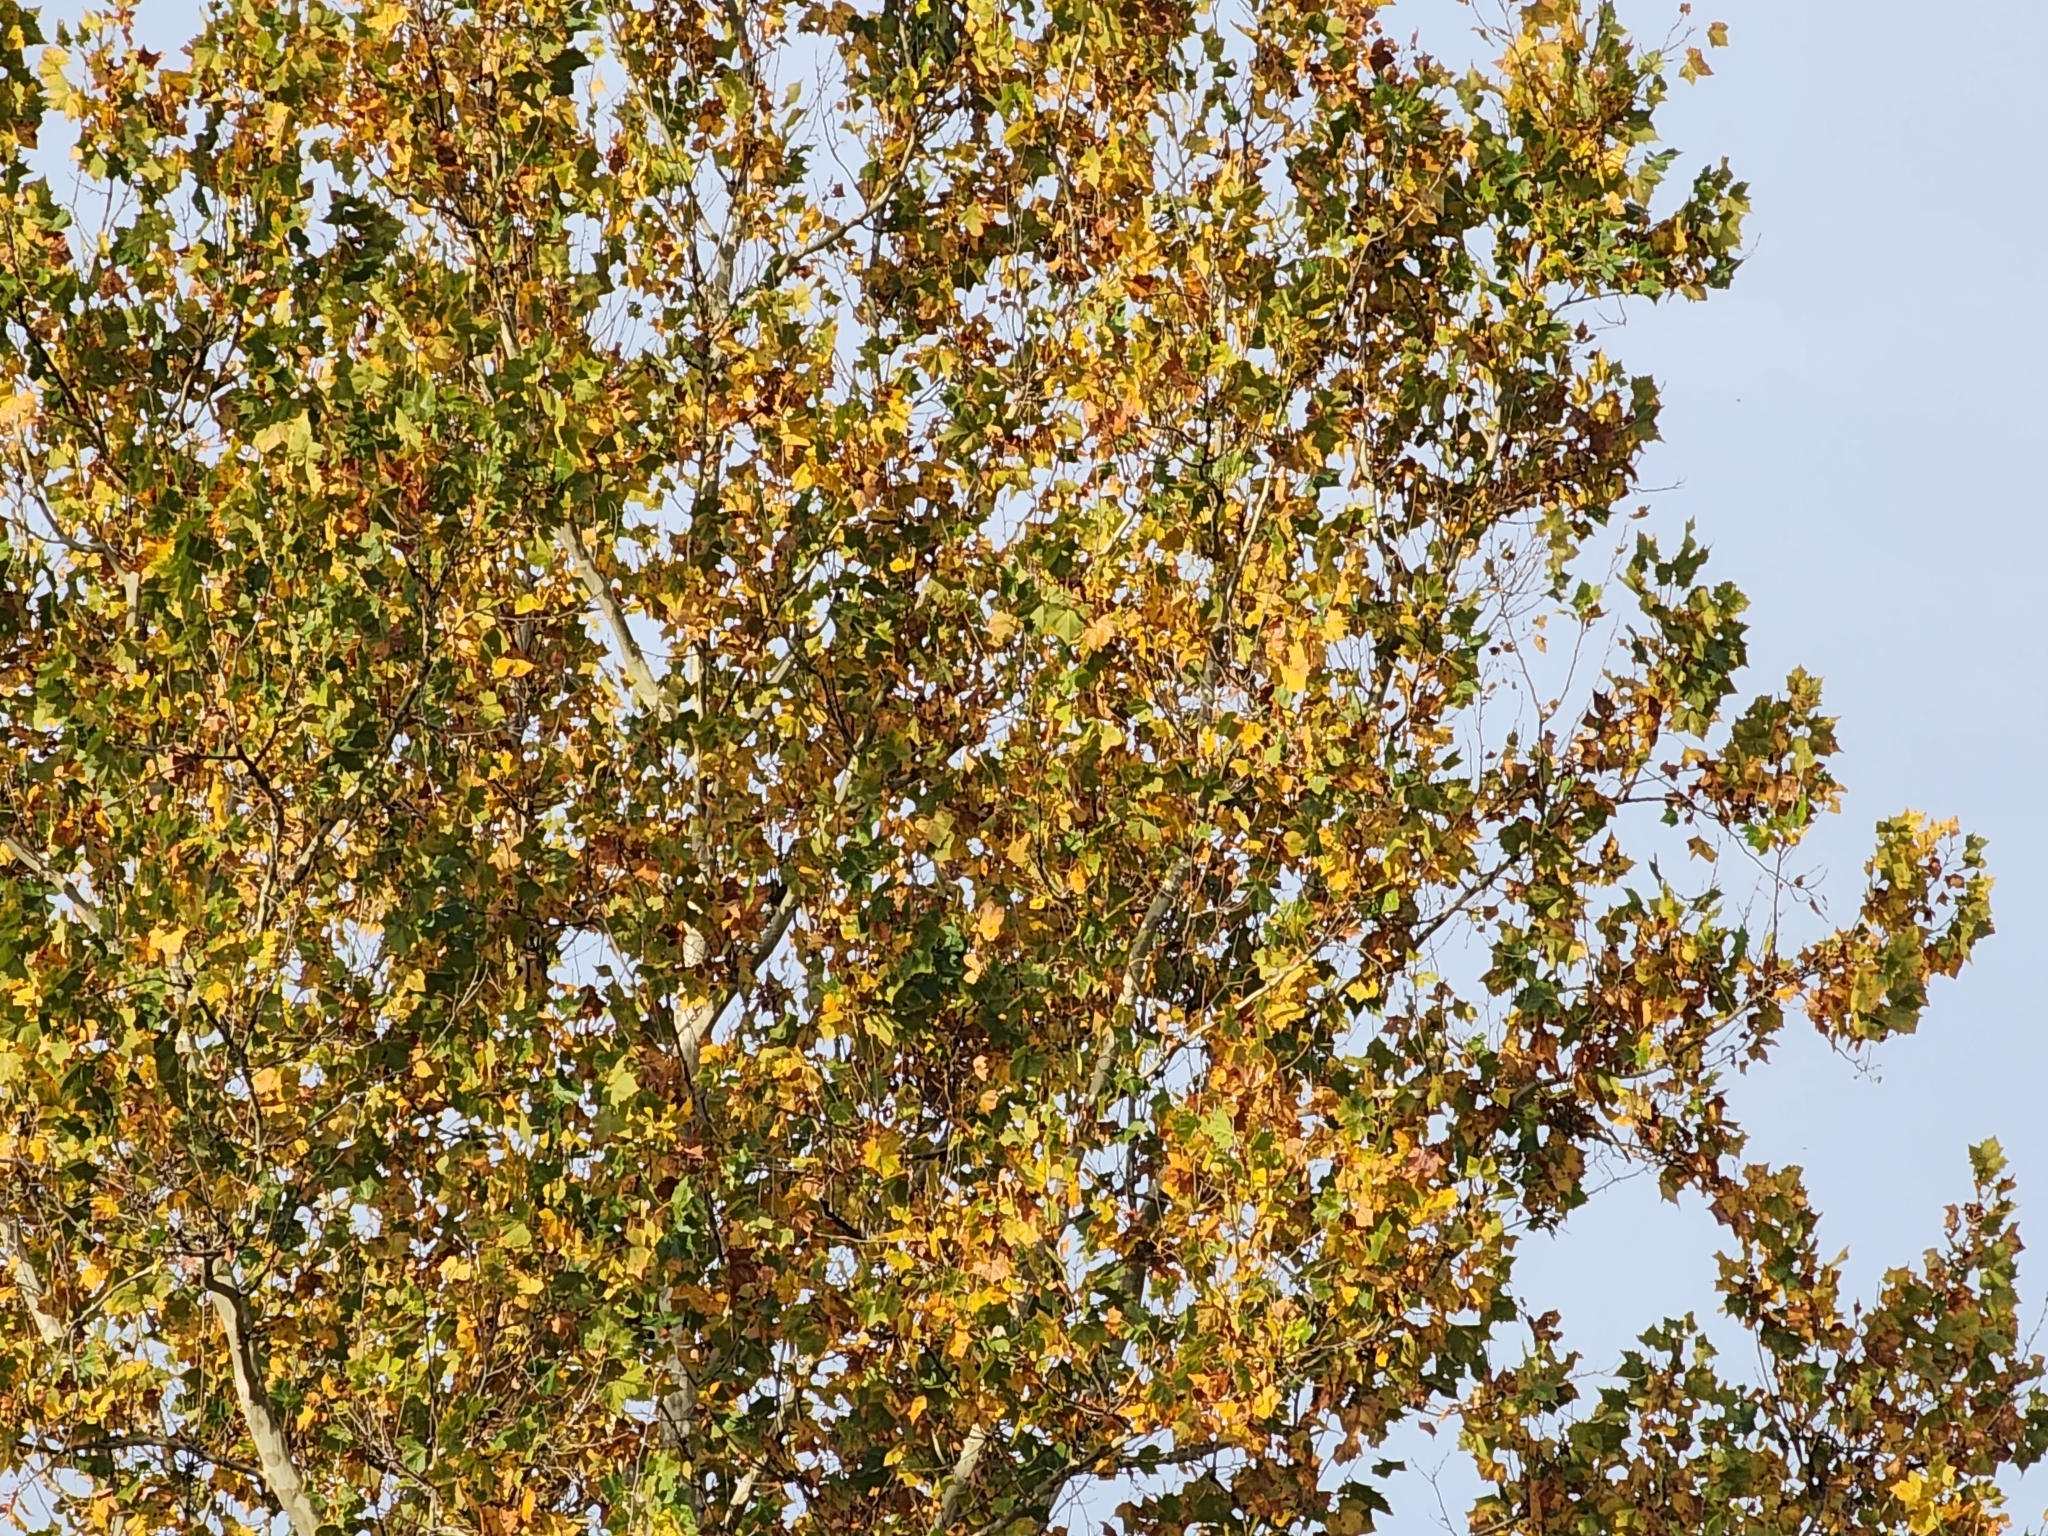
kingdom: Plantae
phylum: Tracheophyta
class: Magnoliopsida
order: Proteales
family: Platanaceae
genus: Platanus
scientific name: Platanus occidentalis
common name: American sycamore
